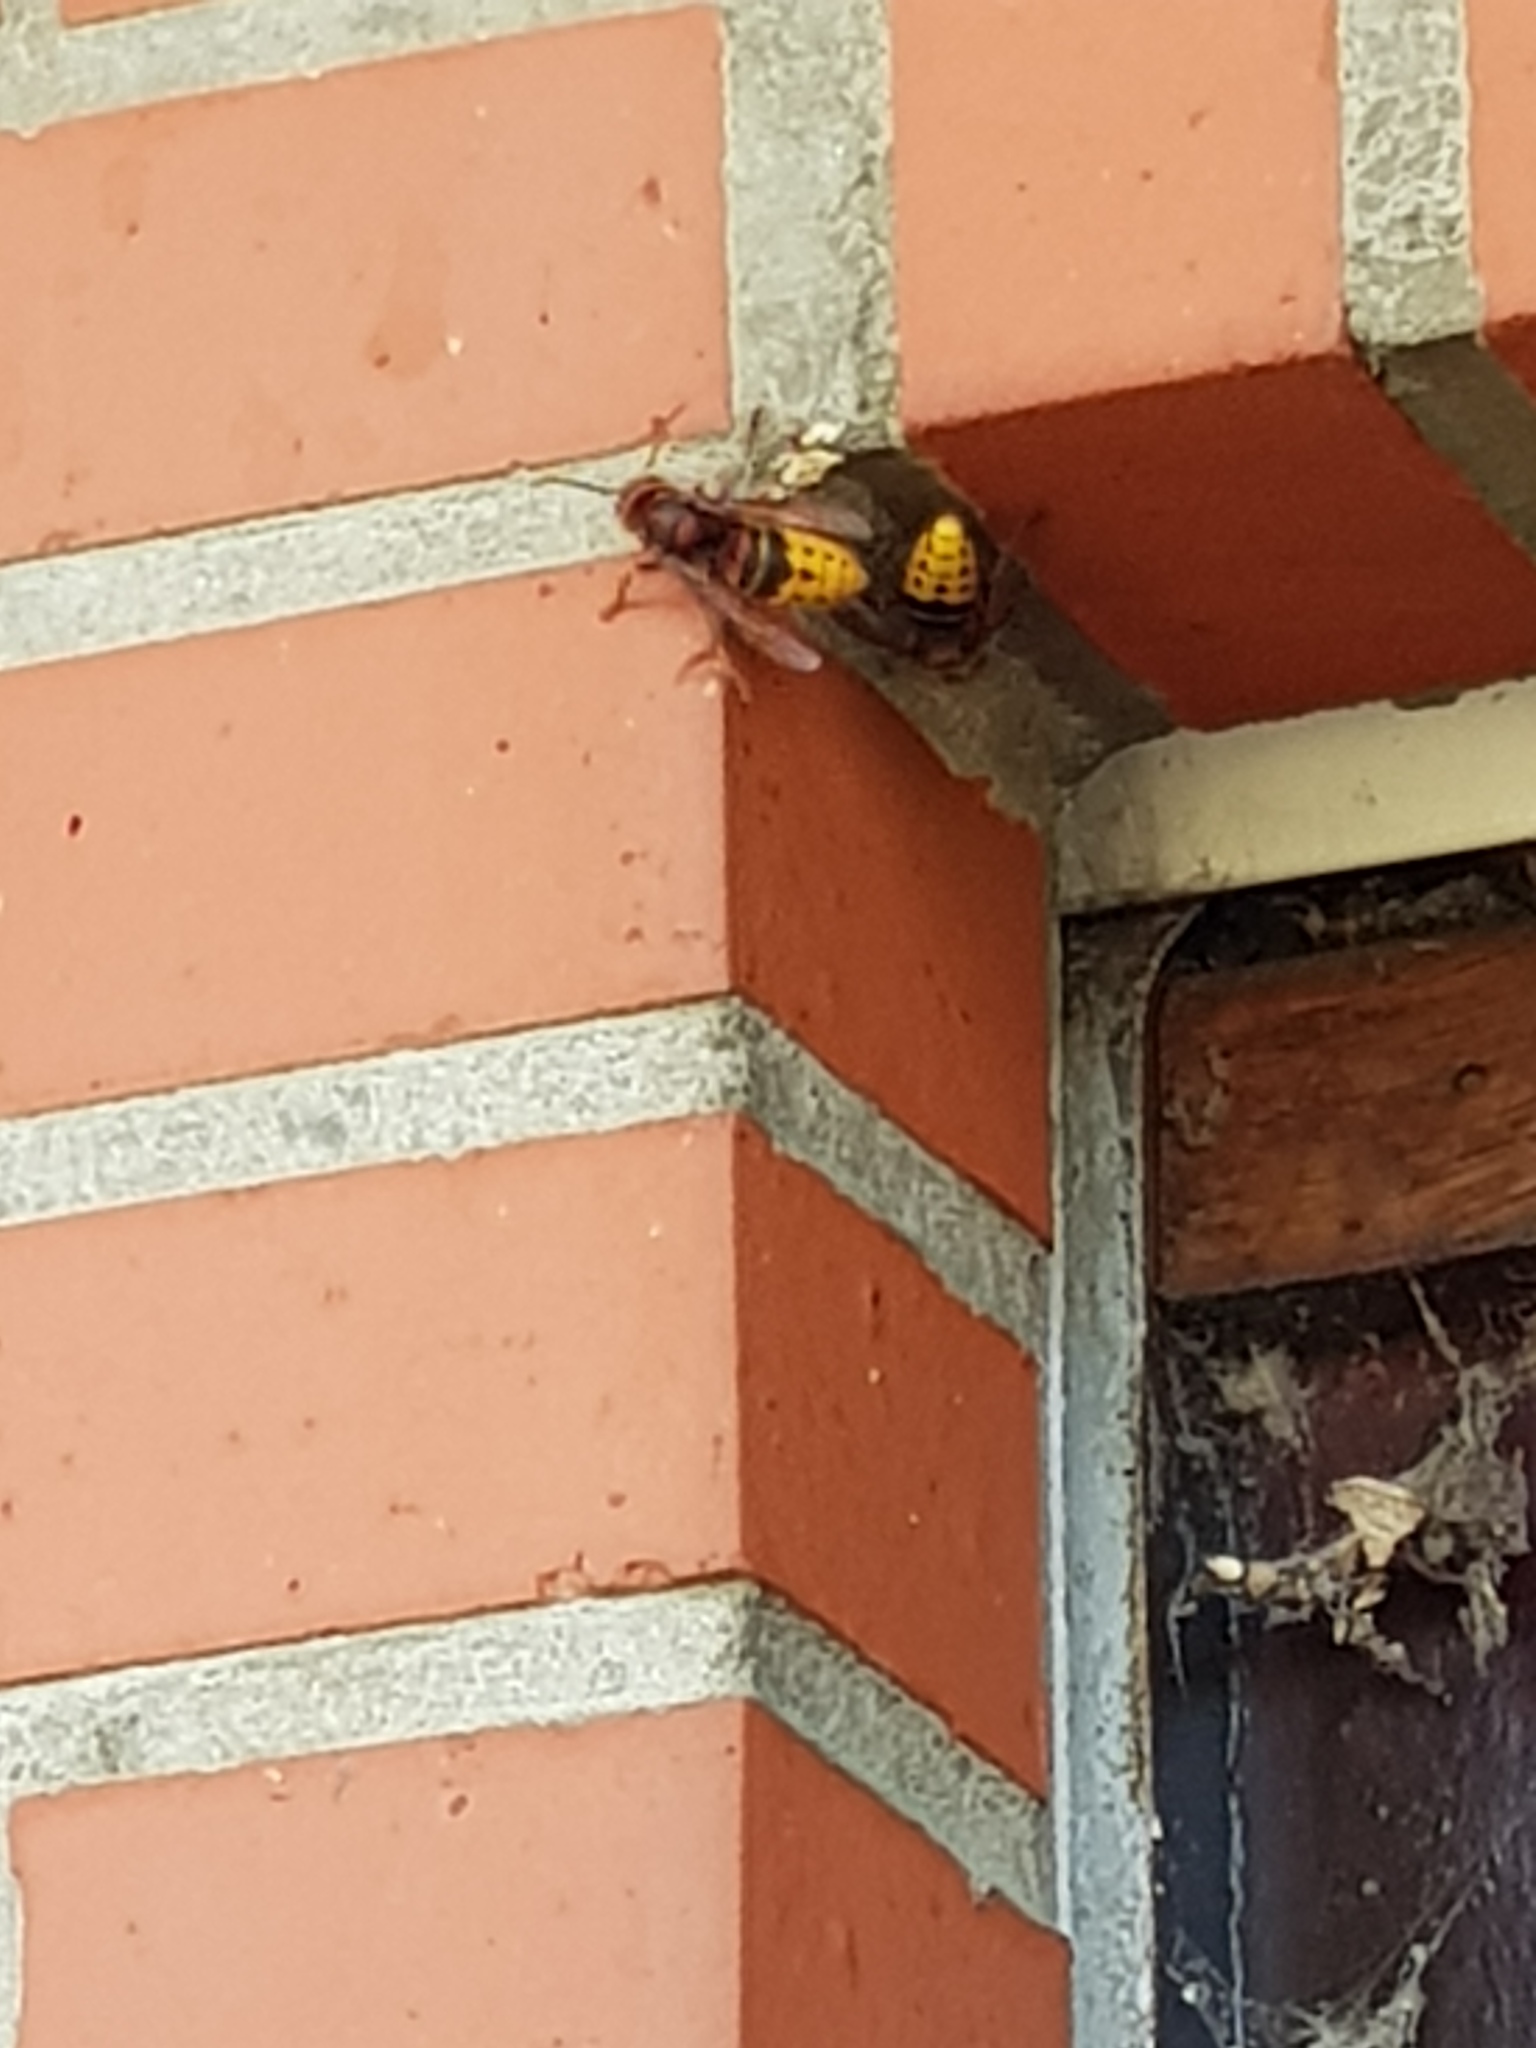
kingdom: Animalia
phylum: Arthropoda
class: Insecta
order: Hymenoptera
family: Vespidae
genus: Vespa
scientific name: Vespa crabro
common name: Hornet
